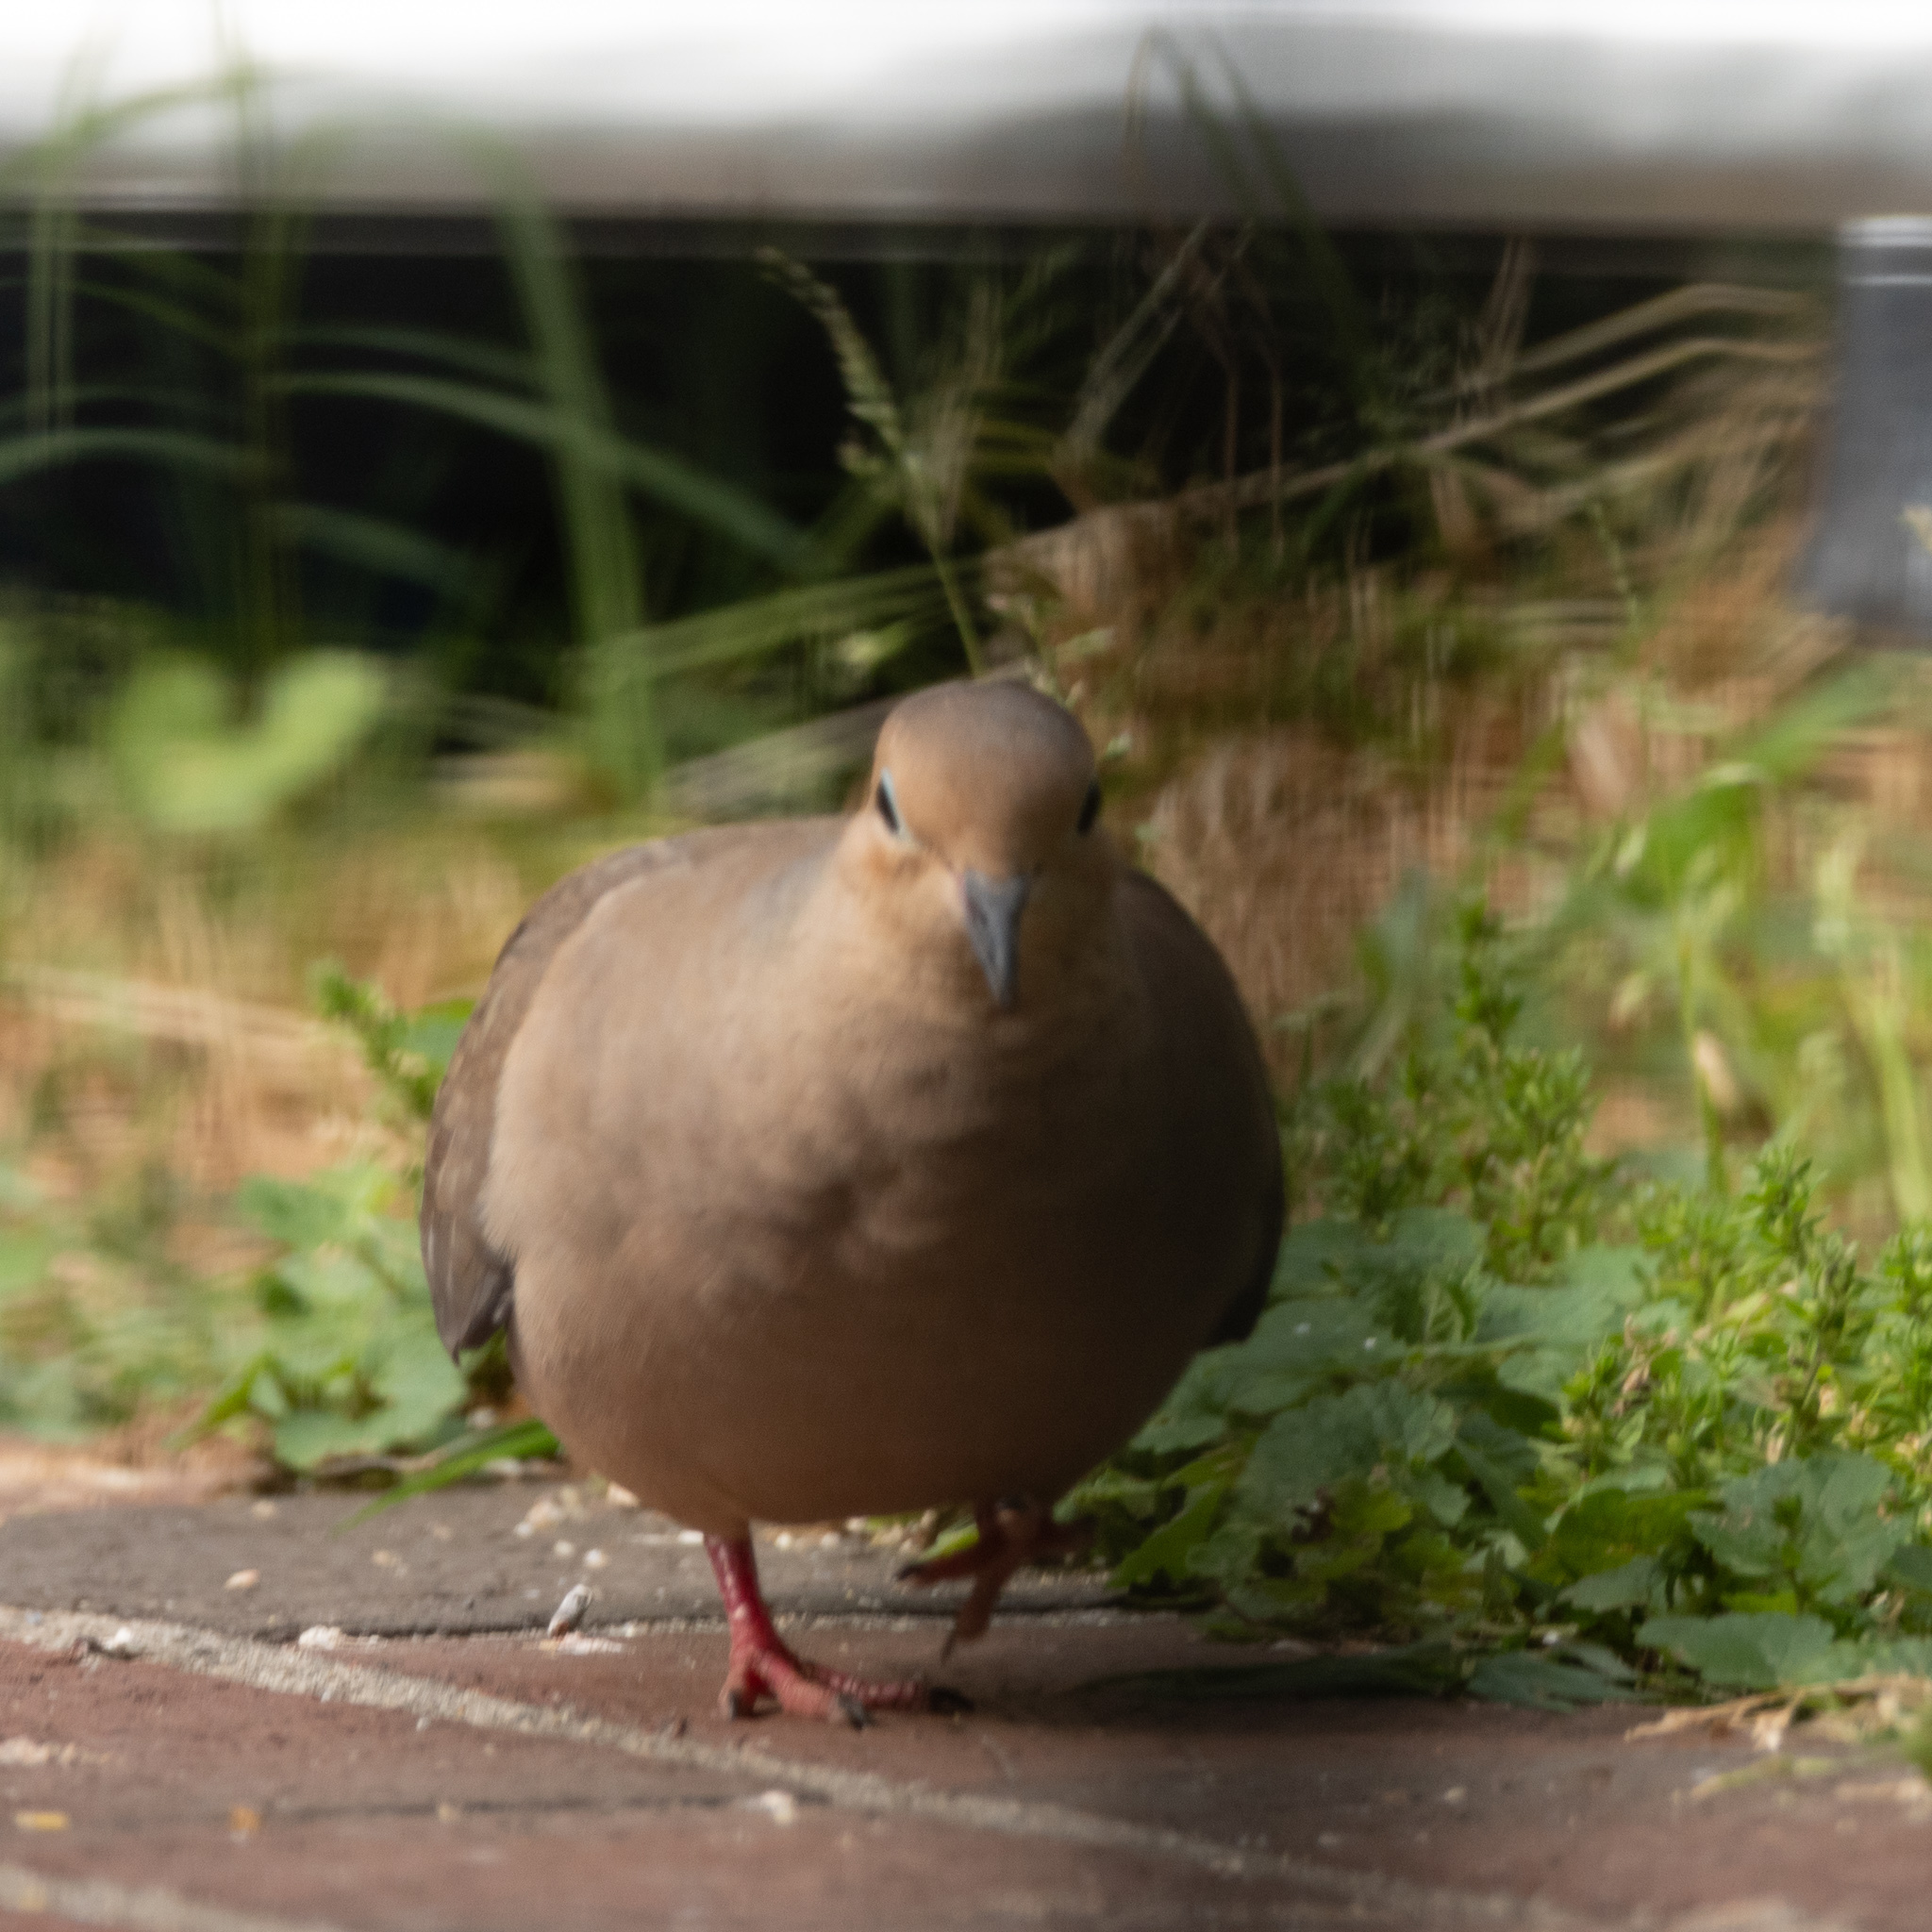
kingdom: Animalia
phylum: Chordata
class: Aves
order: Columbiformes
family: Columbidae
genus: Zenaida
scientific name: Zenaida macroura
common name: Mourning dove
